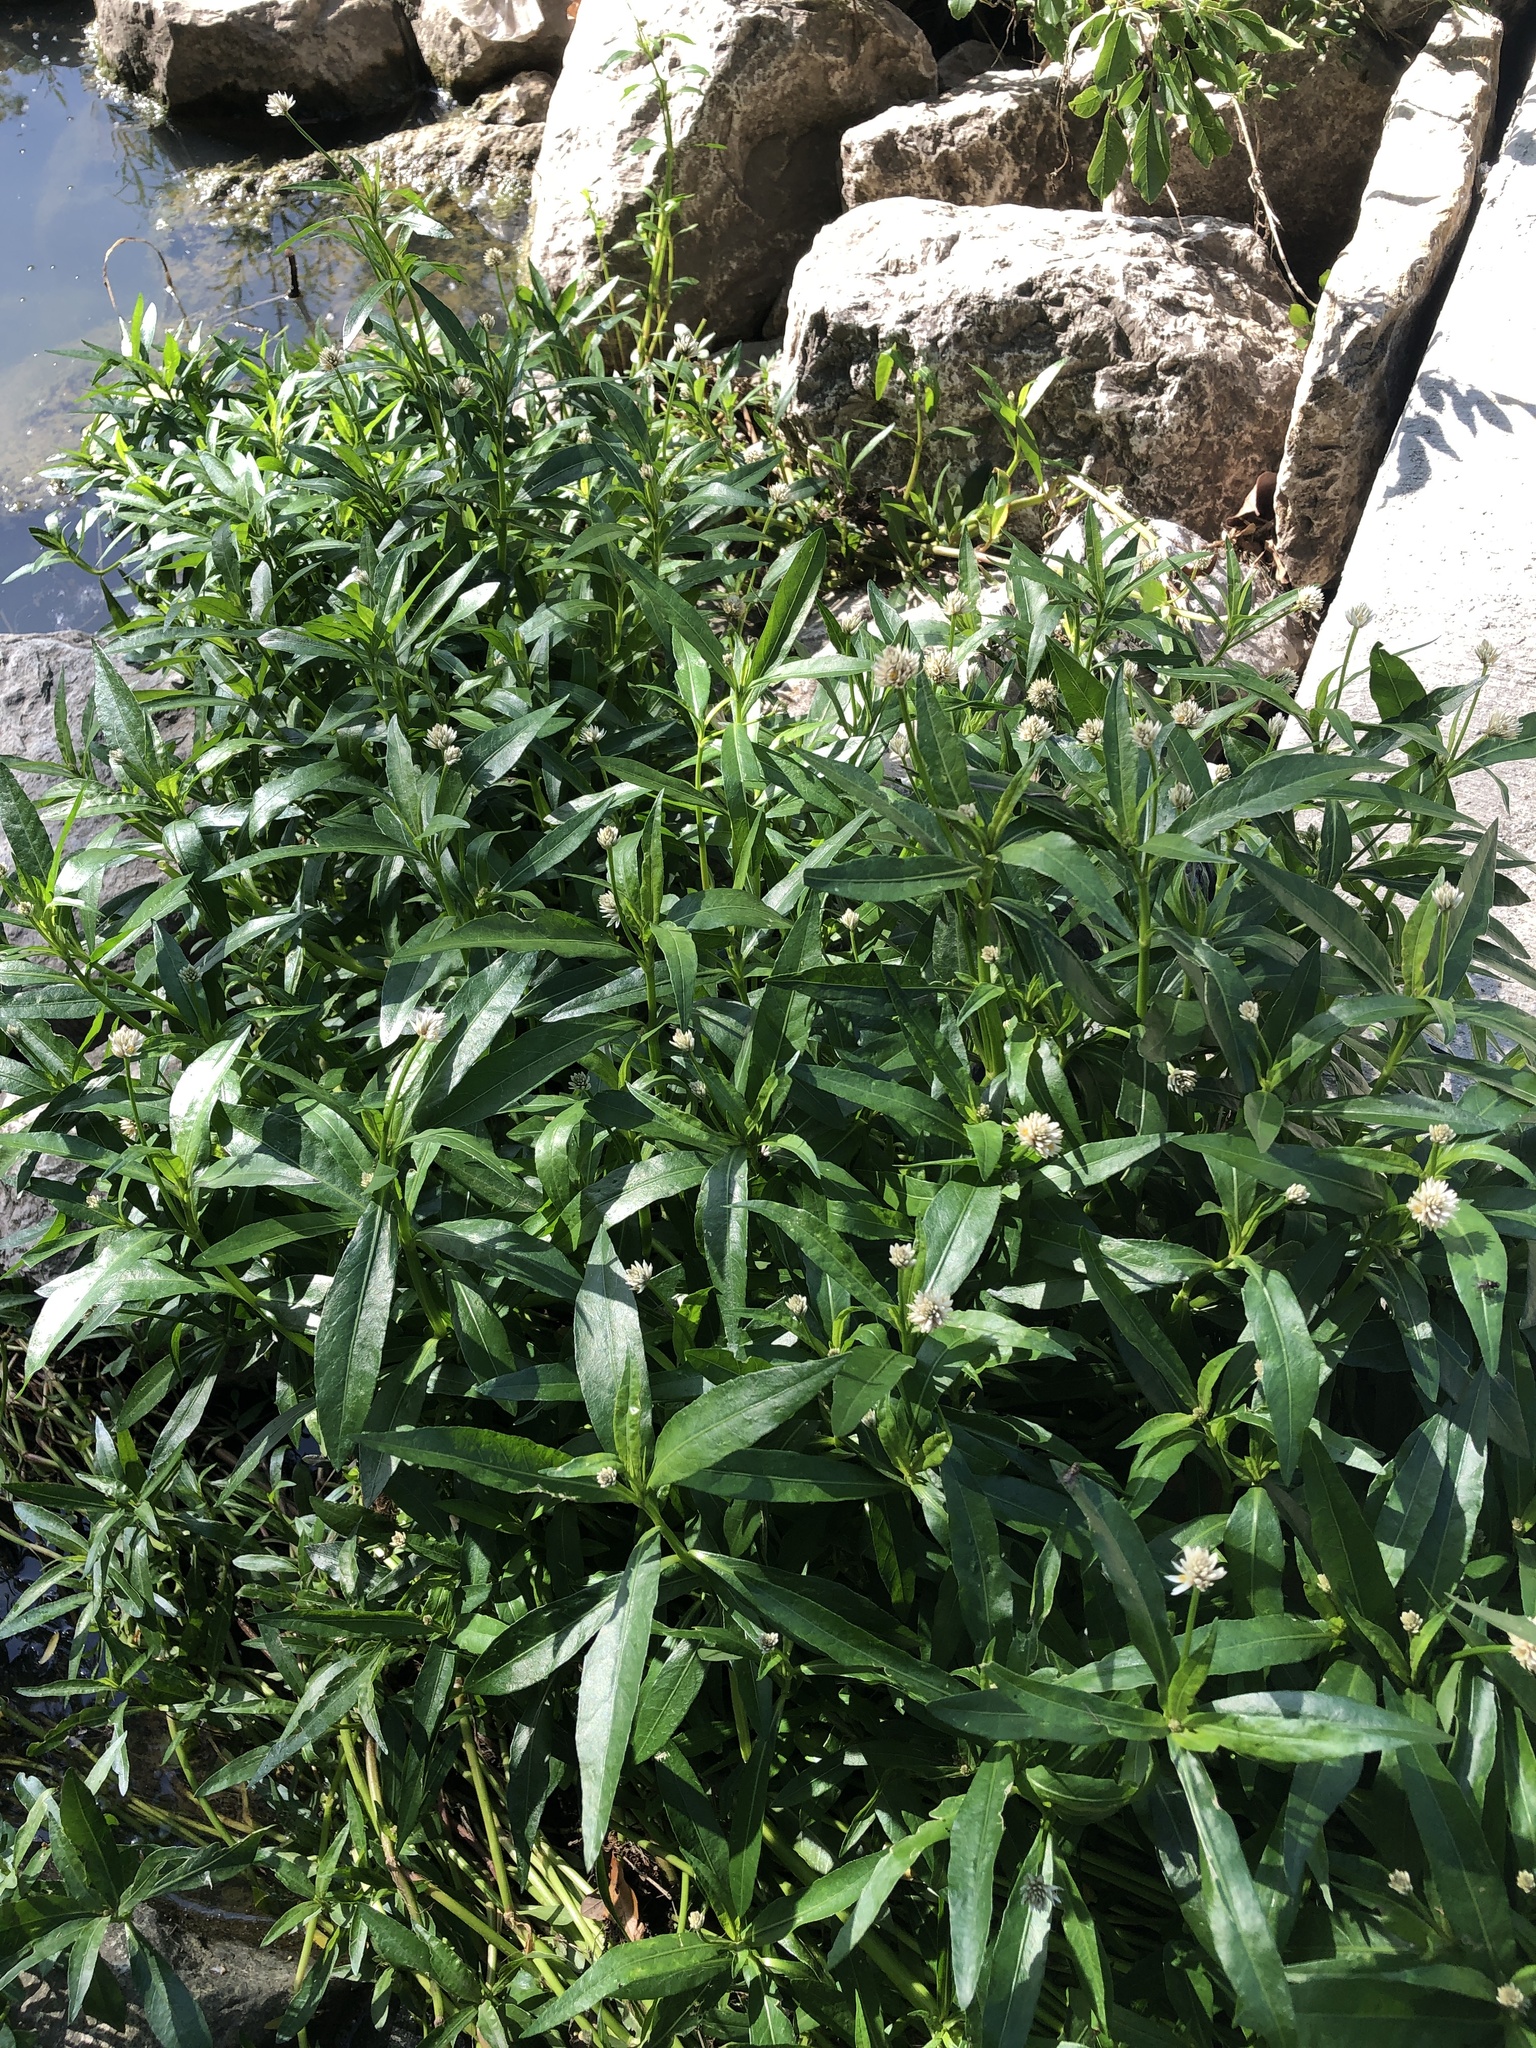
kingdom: Plantae
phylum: Tracheophyta
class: Magnoliopsida
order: Caryophyllales
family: Amaranthaceae
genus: Alternanthera
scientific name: Alternanthera philoxeroides
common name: Alligatorweed
